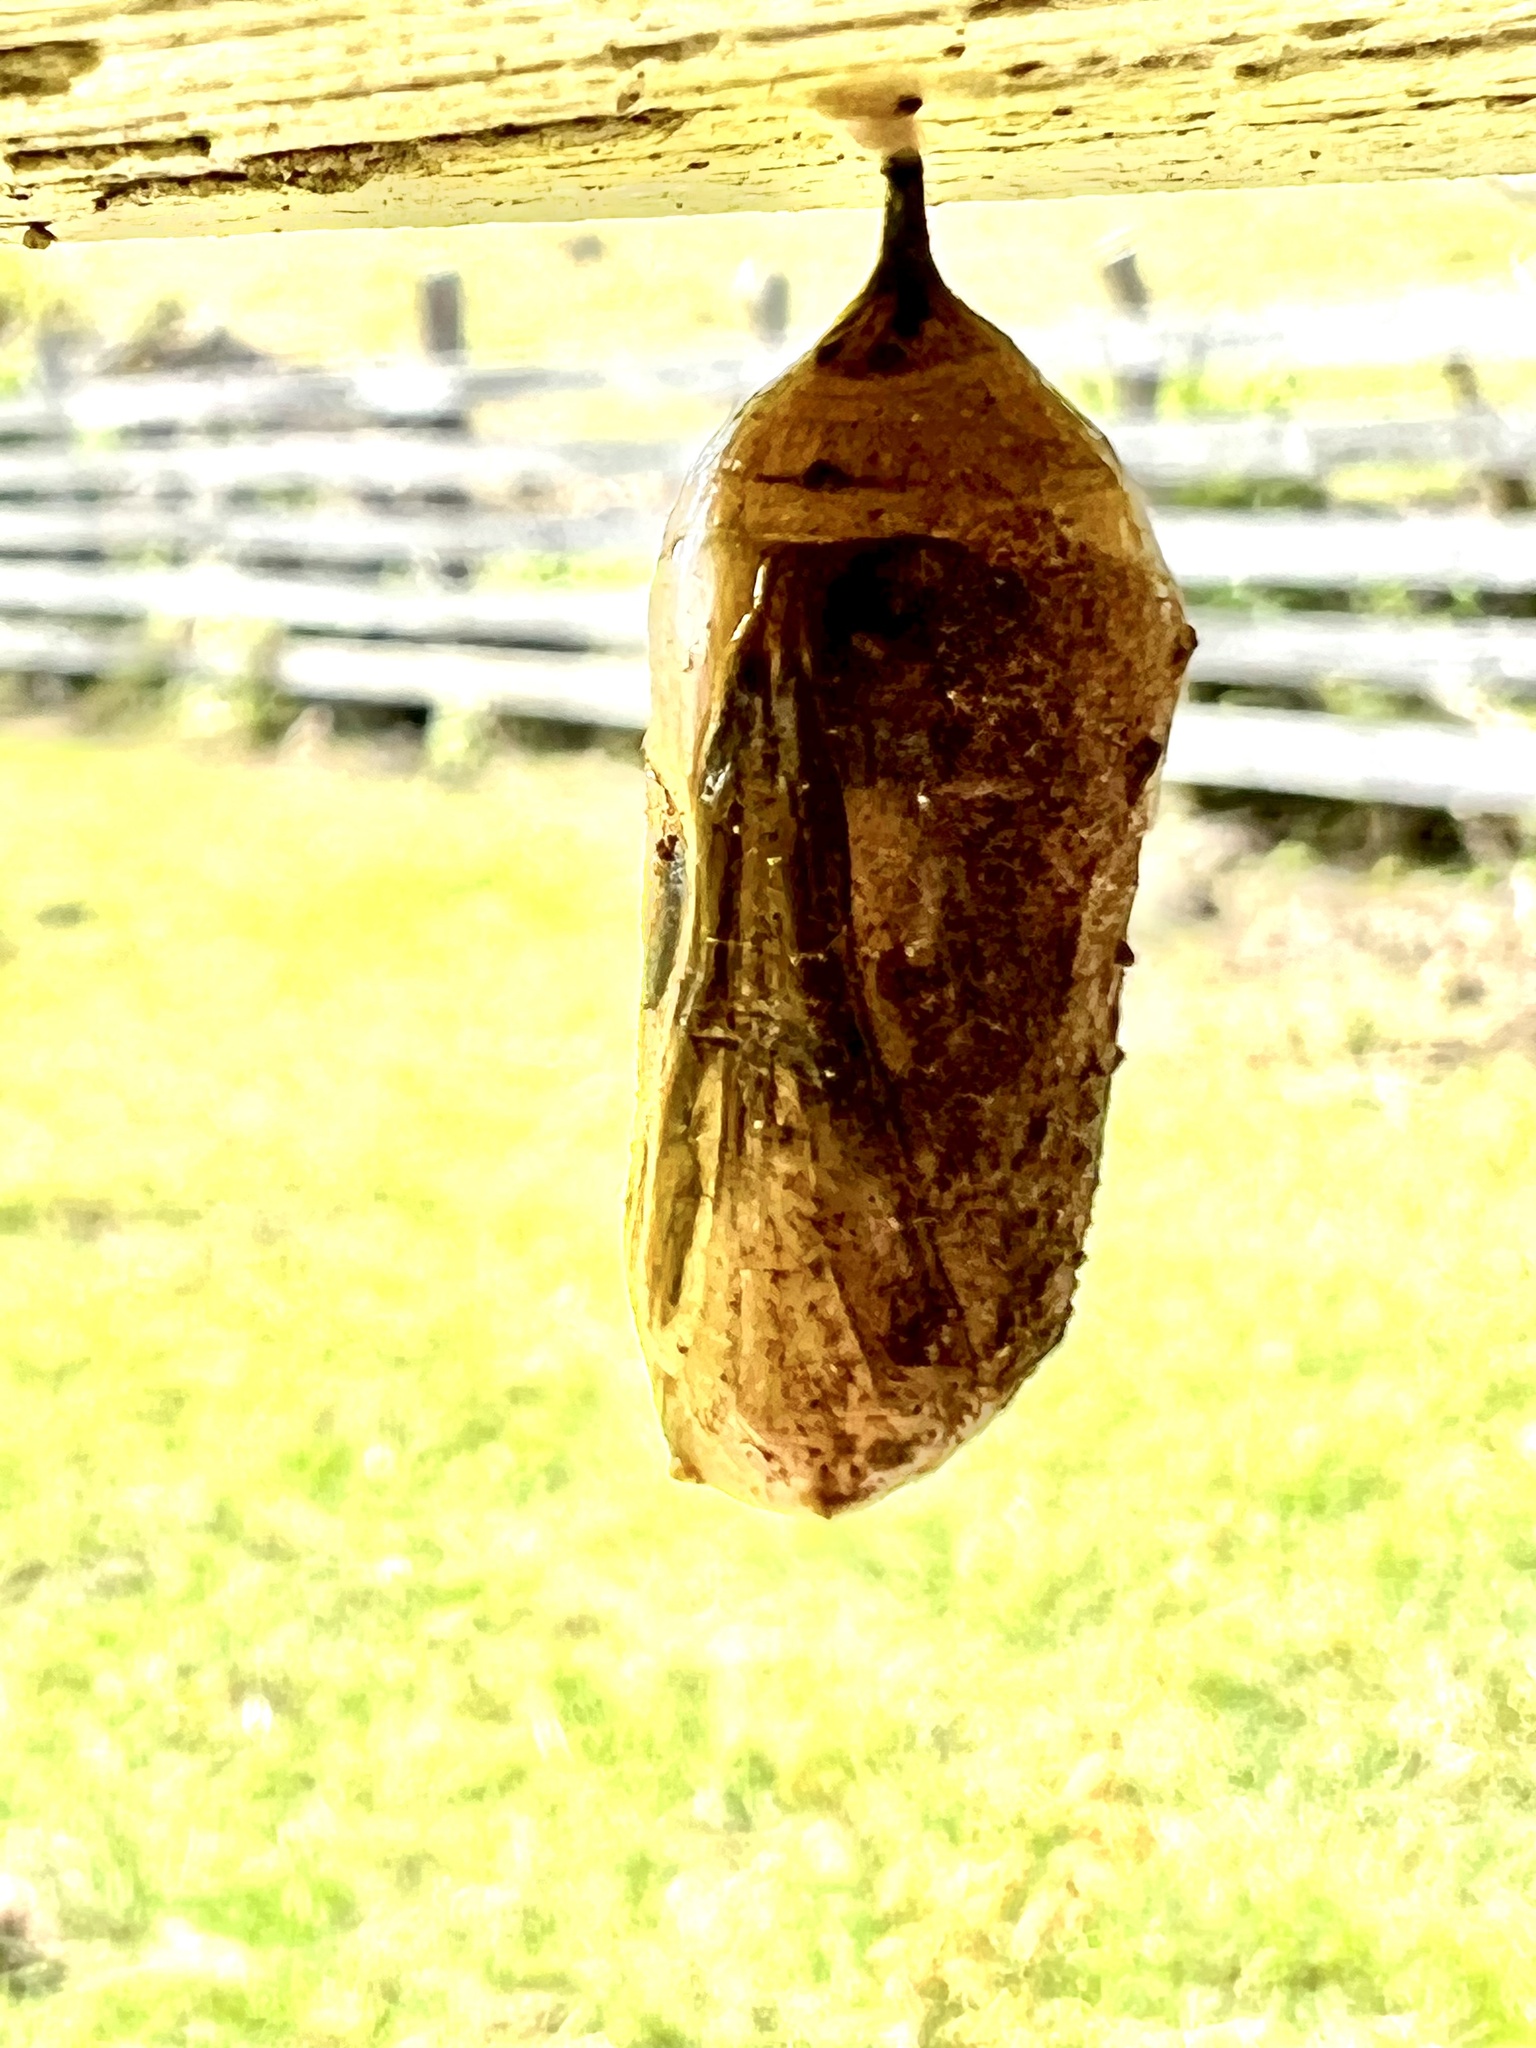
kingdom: Animalia
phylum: Arthropoda
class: Insecta
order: Lepidoptera
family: Nymphalidae
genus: Danaus
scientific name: Danaus plexippus
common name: Monarch
